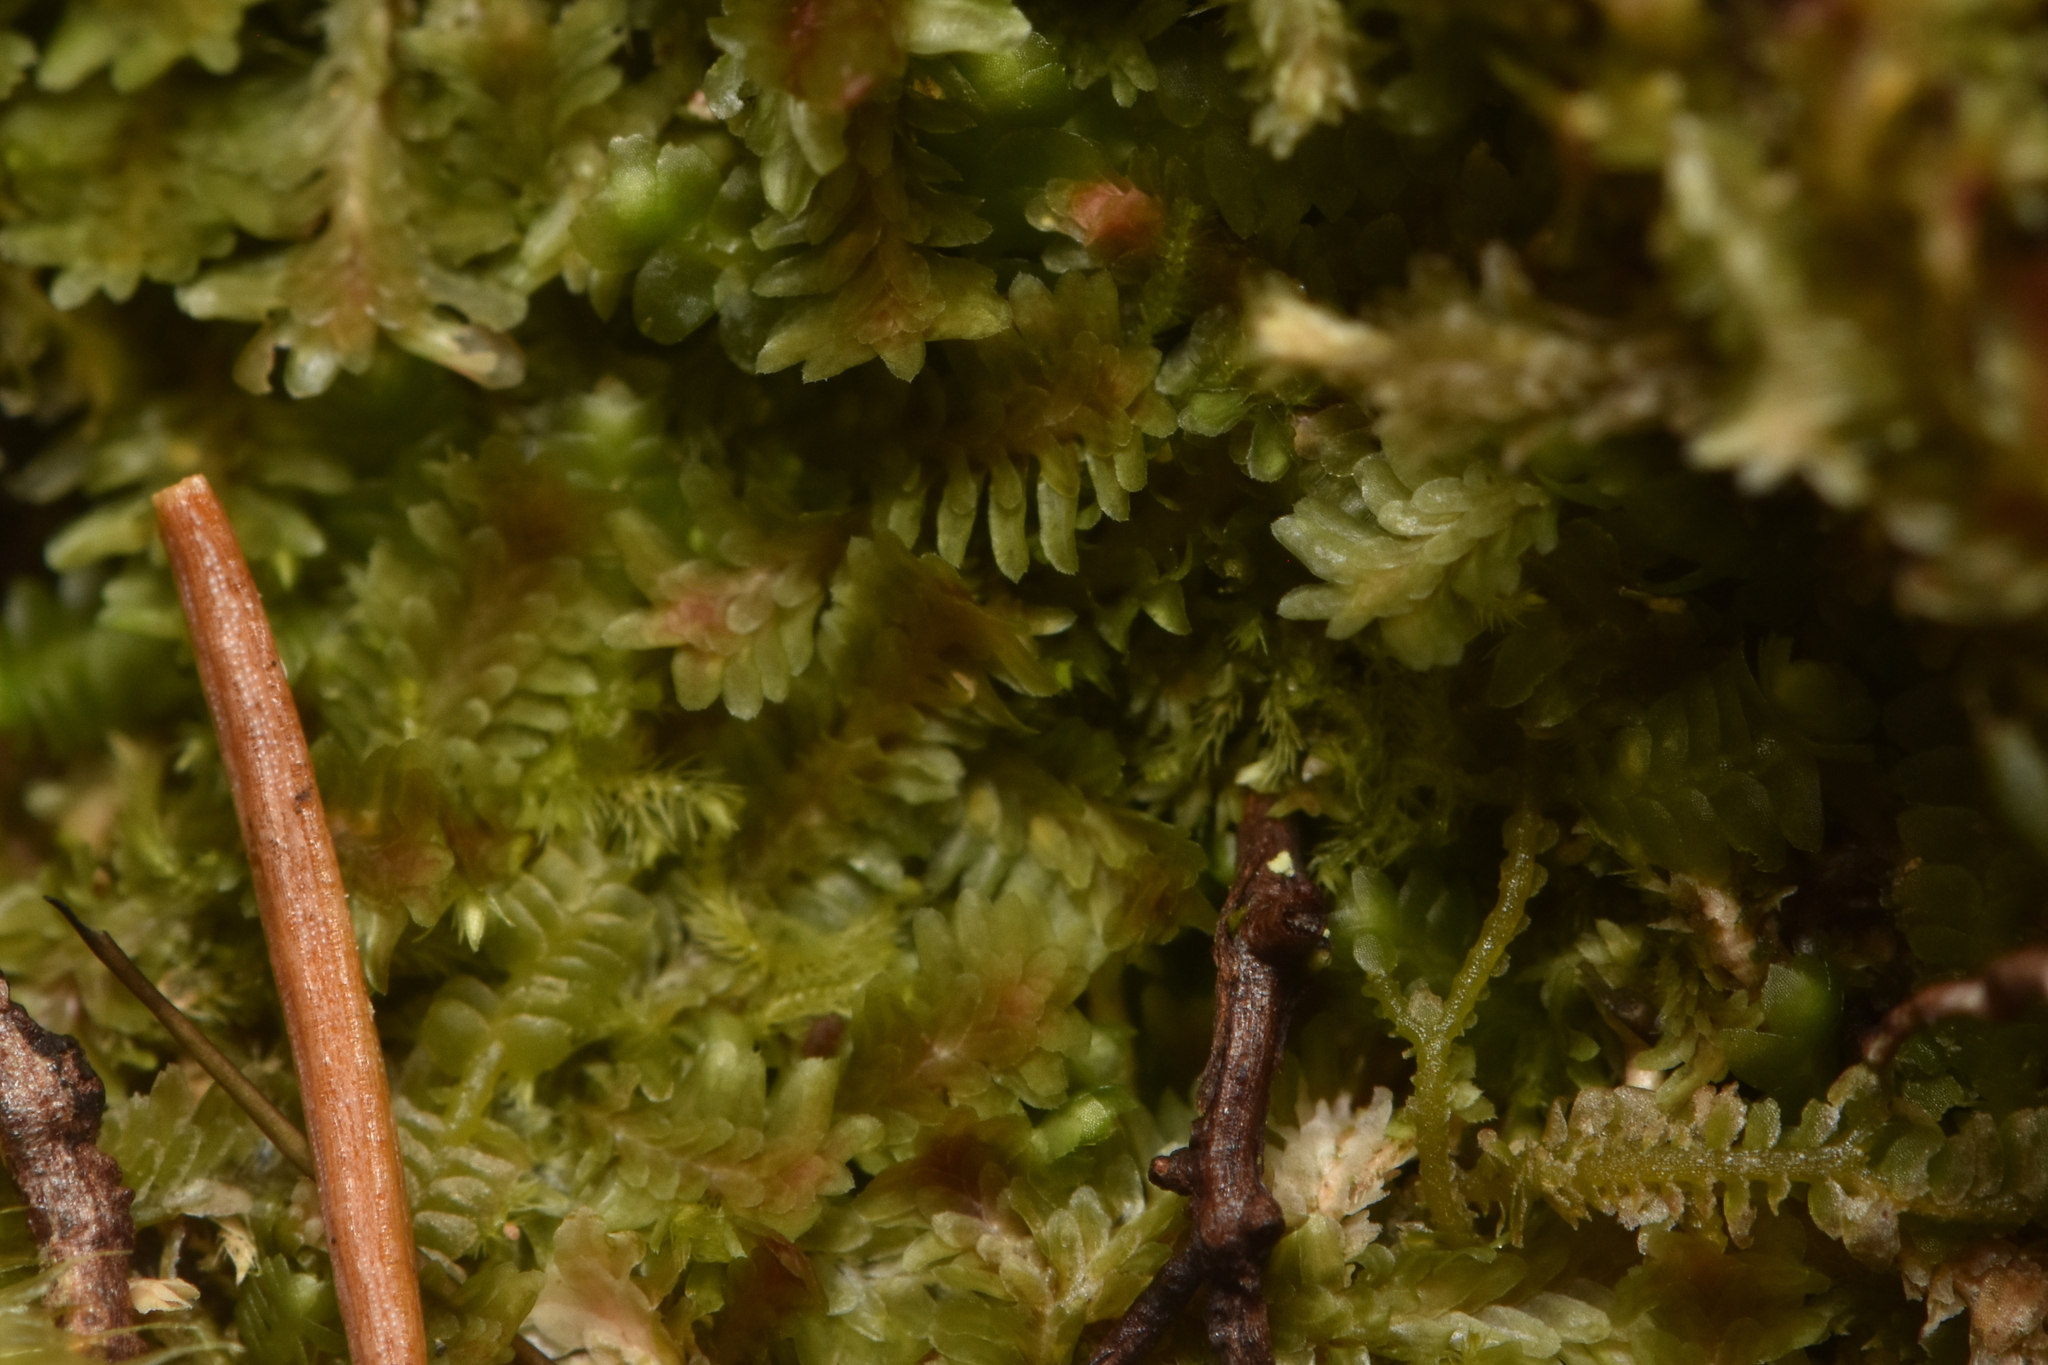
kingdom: Plantae
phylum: Marchantiophyta
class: Jungermanniopsida
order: Jungermanniales
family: Scapaniaceae
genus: Diplophyllum
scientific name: Diplophyllum albicans
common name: White earwort
